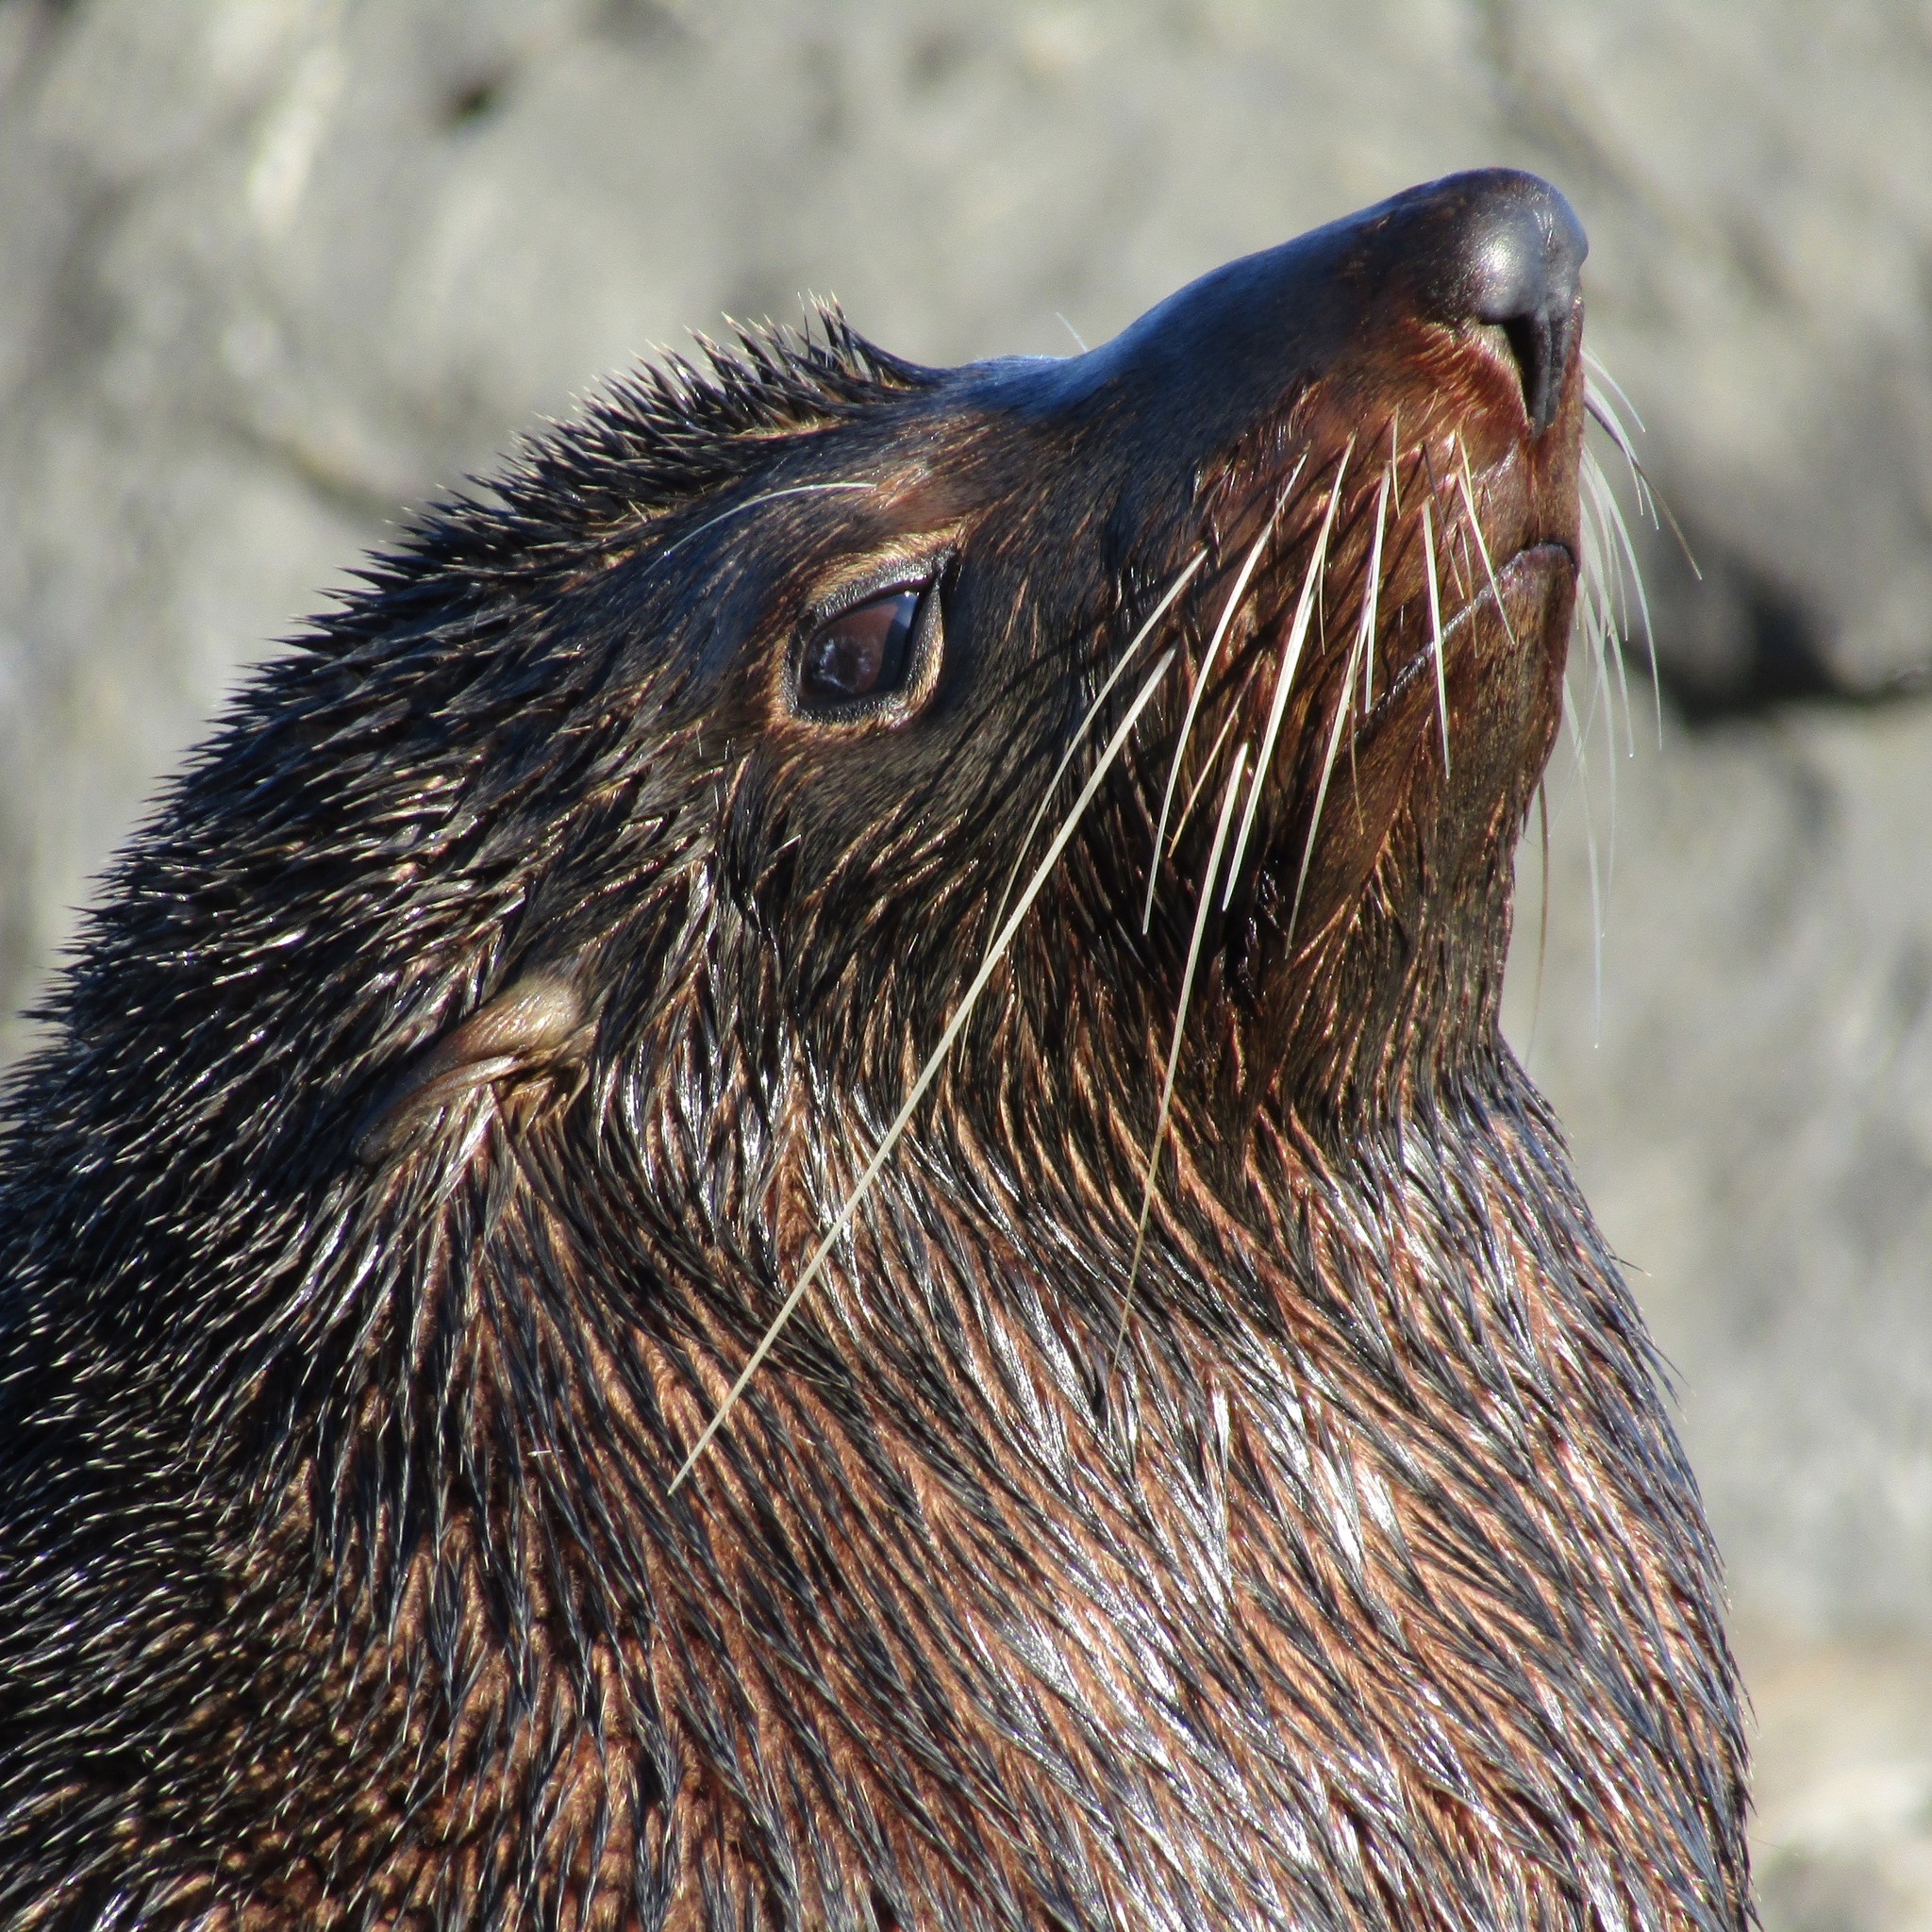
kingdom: Animalia
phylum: Chordata
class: Mammalia
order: Carnivora
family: Otariidae
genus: Arctocephalus
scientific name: Arctocephalus forsteri
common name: New zealand fur seal
